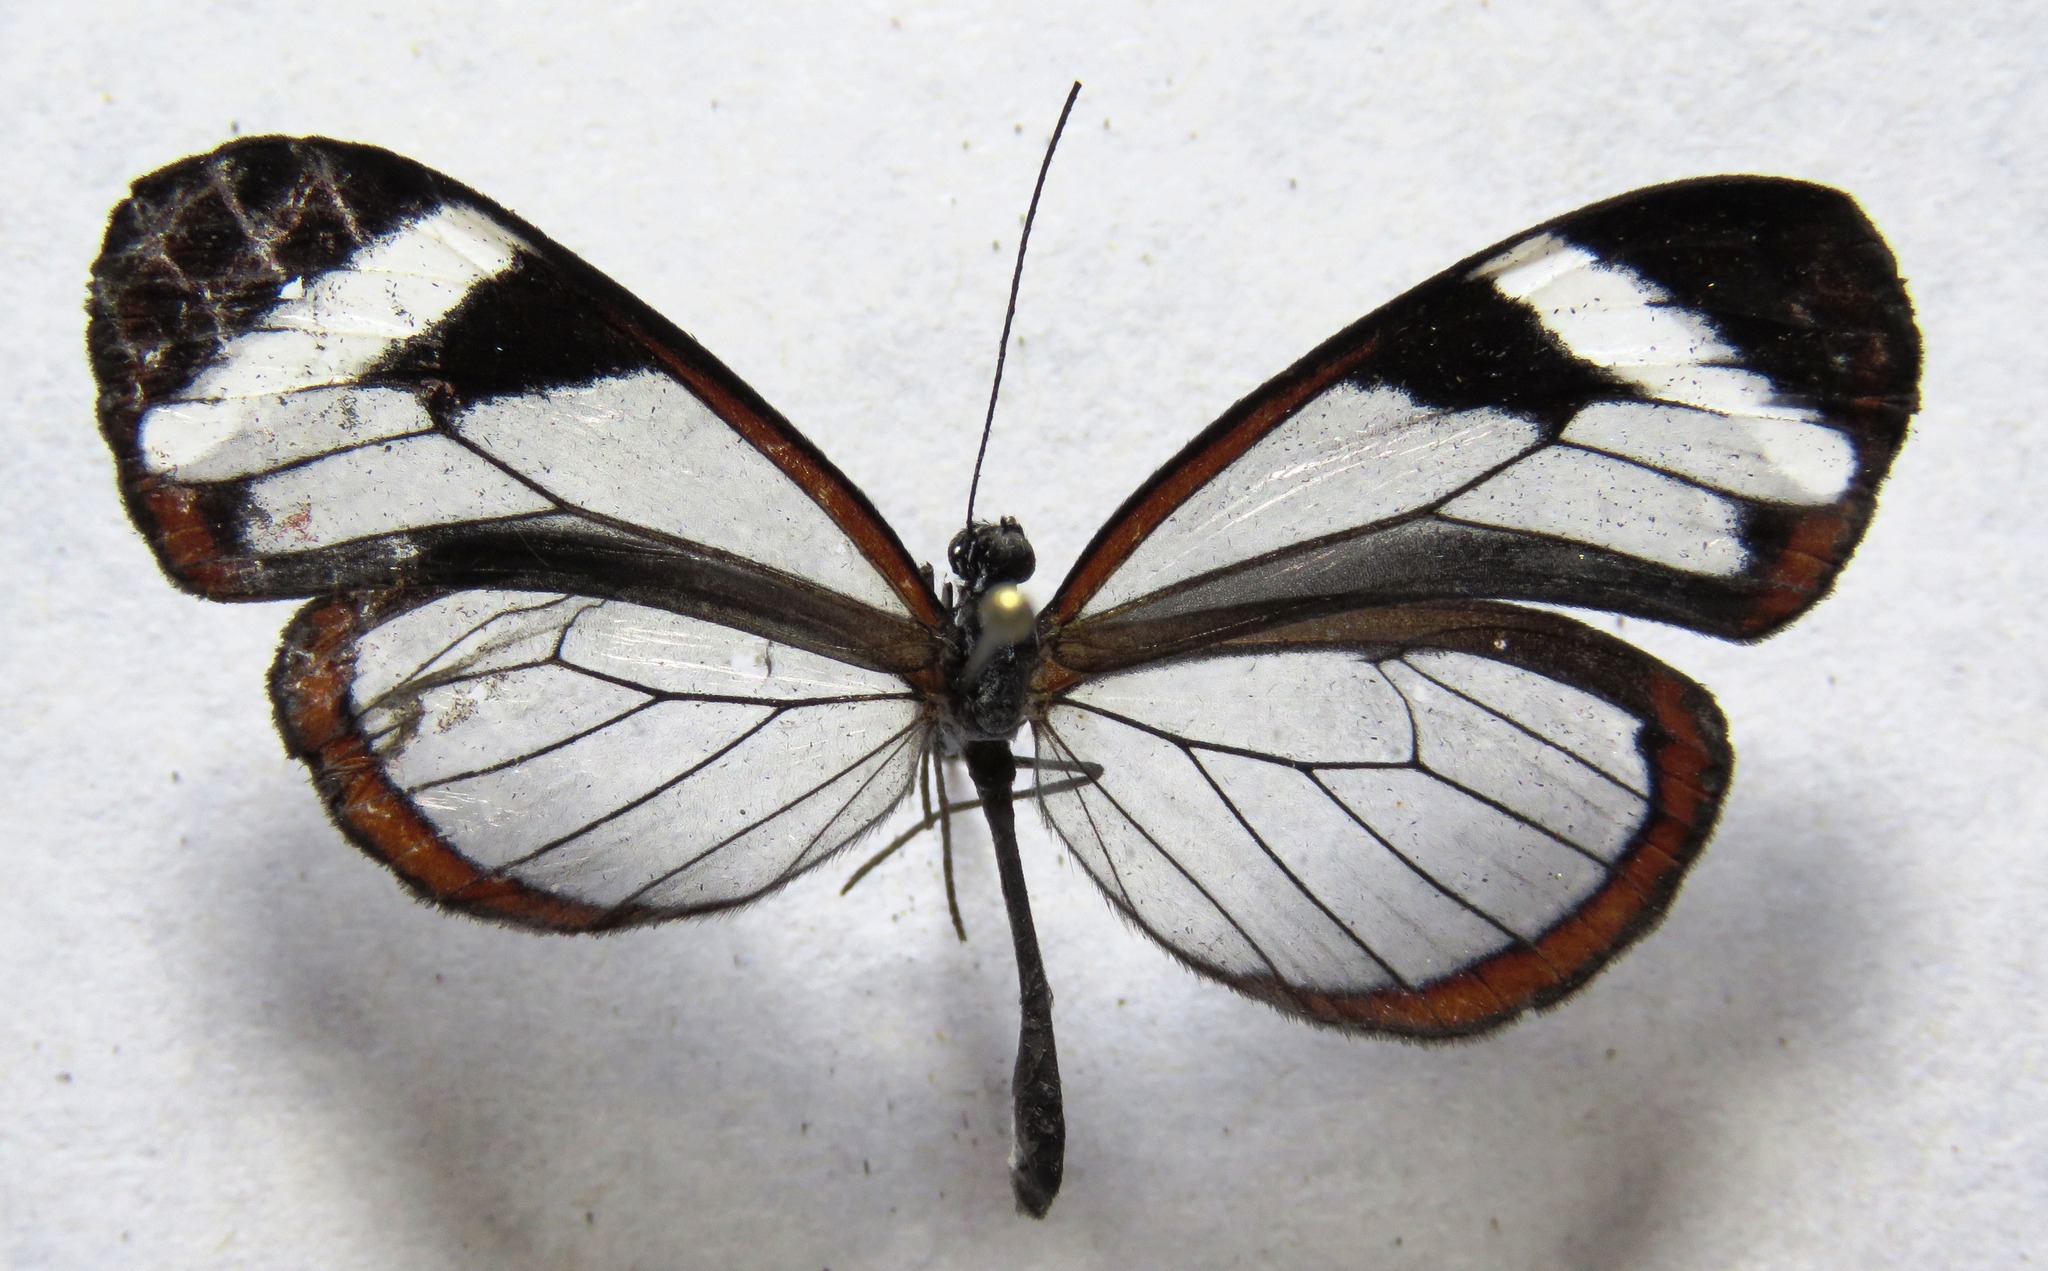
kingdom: Animalia
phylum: Arthropoda
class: Insecta
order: Lepidoptera
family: Nymphalidae
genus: Oleria
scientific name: Oleria paula
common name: Paula's clearwing
